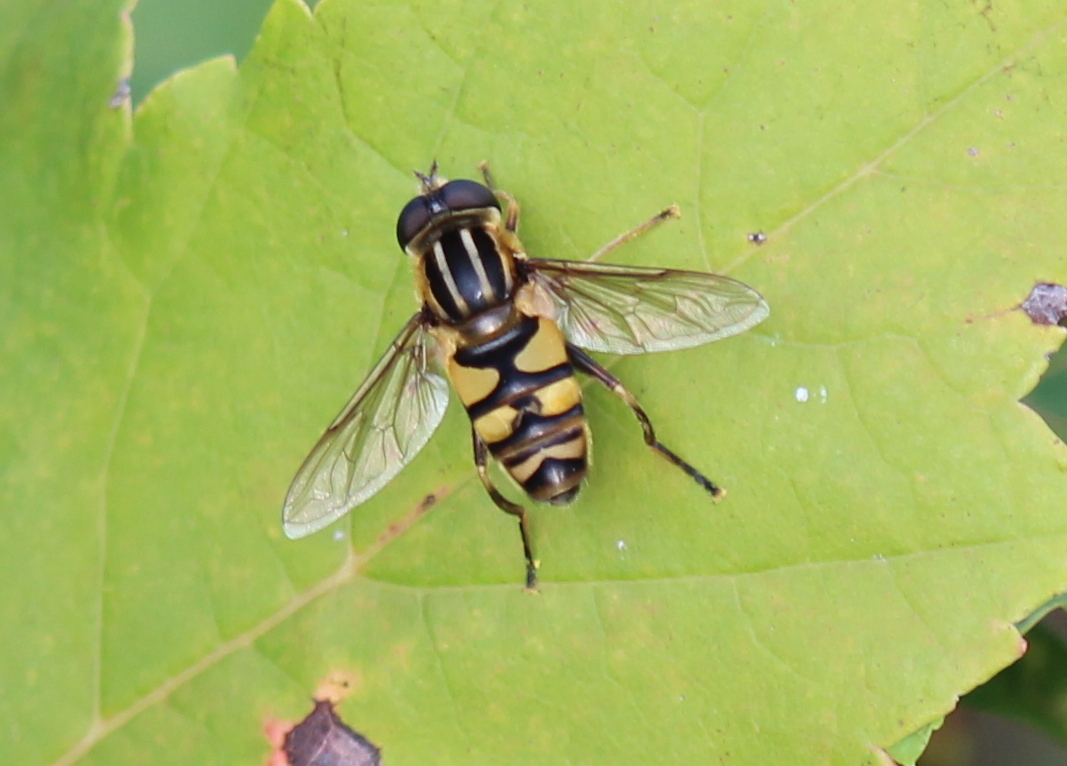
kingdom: Animalia
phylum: Arthropoda
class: Insecta
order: Diptera
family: Syrphidae
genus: Helophilus
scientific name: Helophilus fasciatus
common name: Narrow-headed marsh fly
